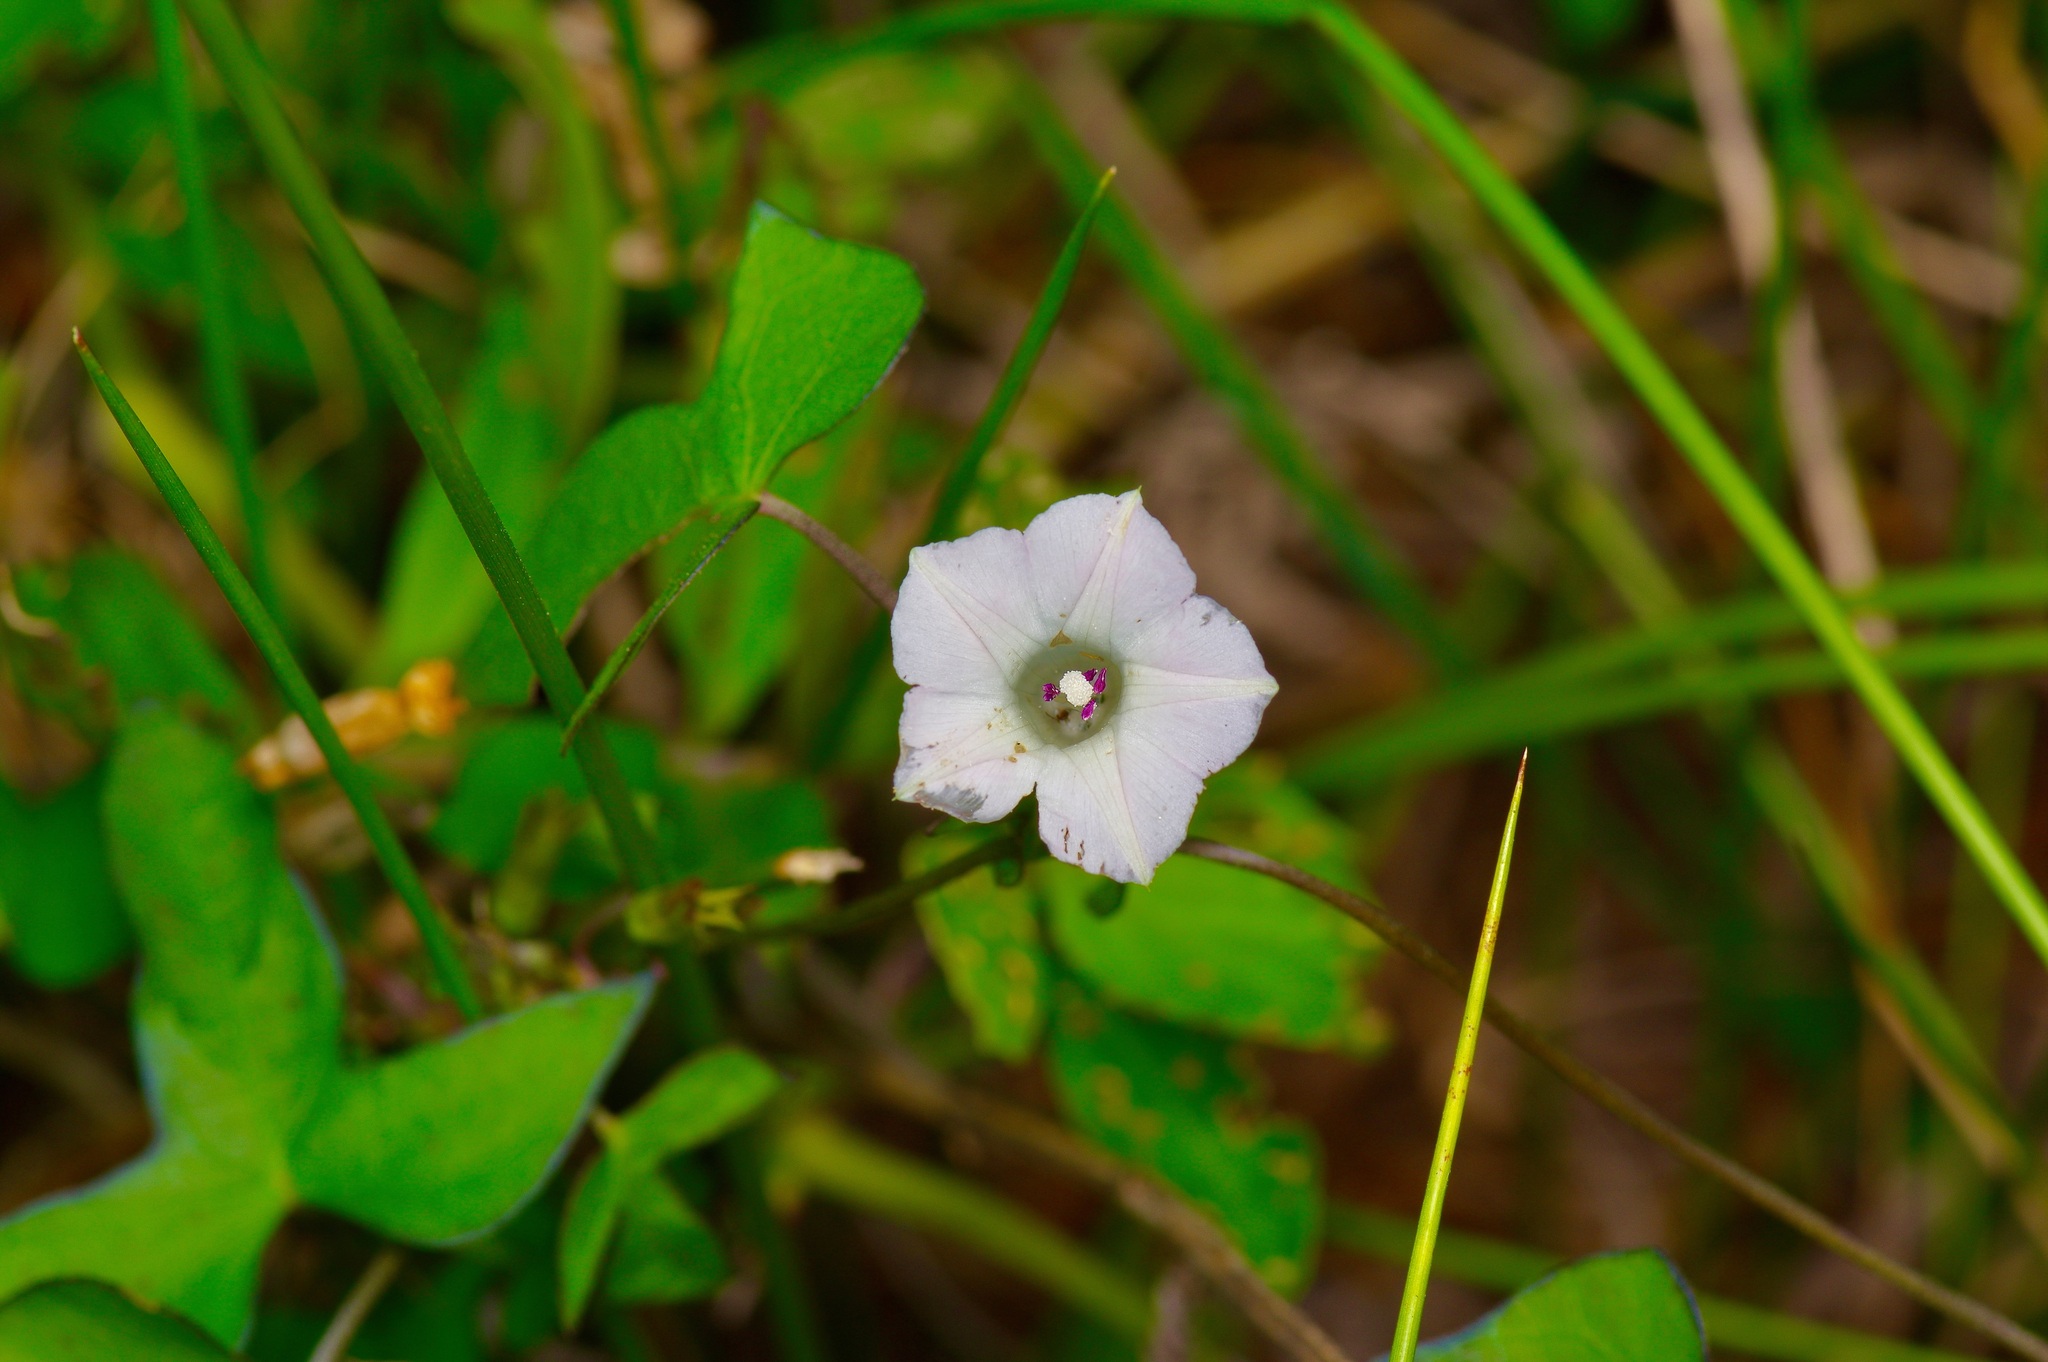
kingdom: Plantae
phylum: Tracheophyta
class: Magnoliopsida
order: Solanales
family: Convolvulaceae
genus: Ipomoea
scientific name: Ipomoea lacunosa
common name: White morning-glory
